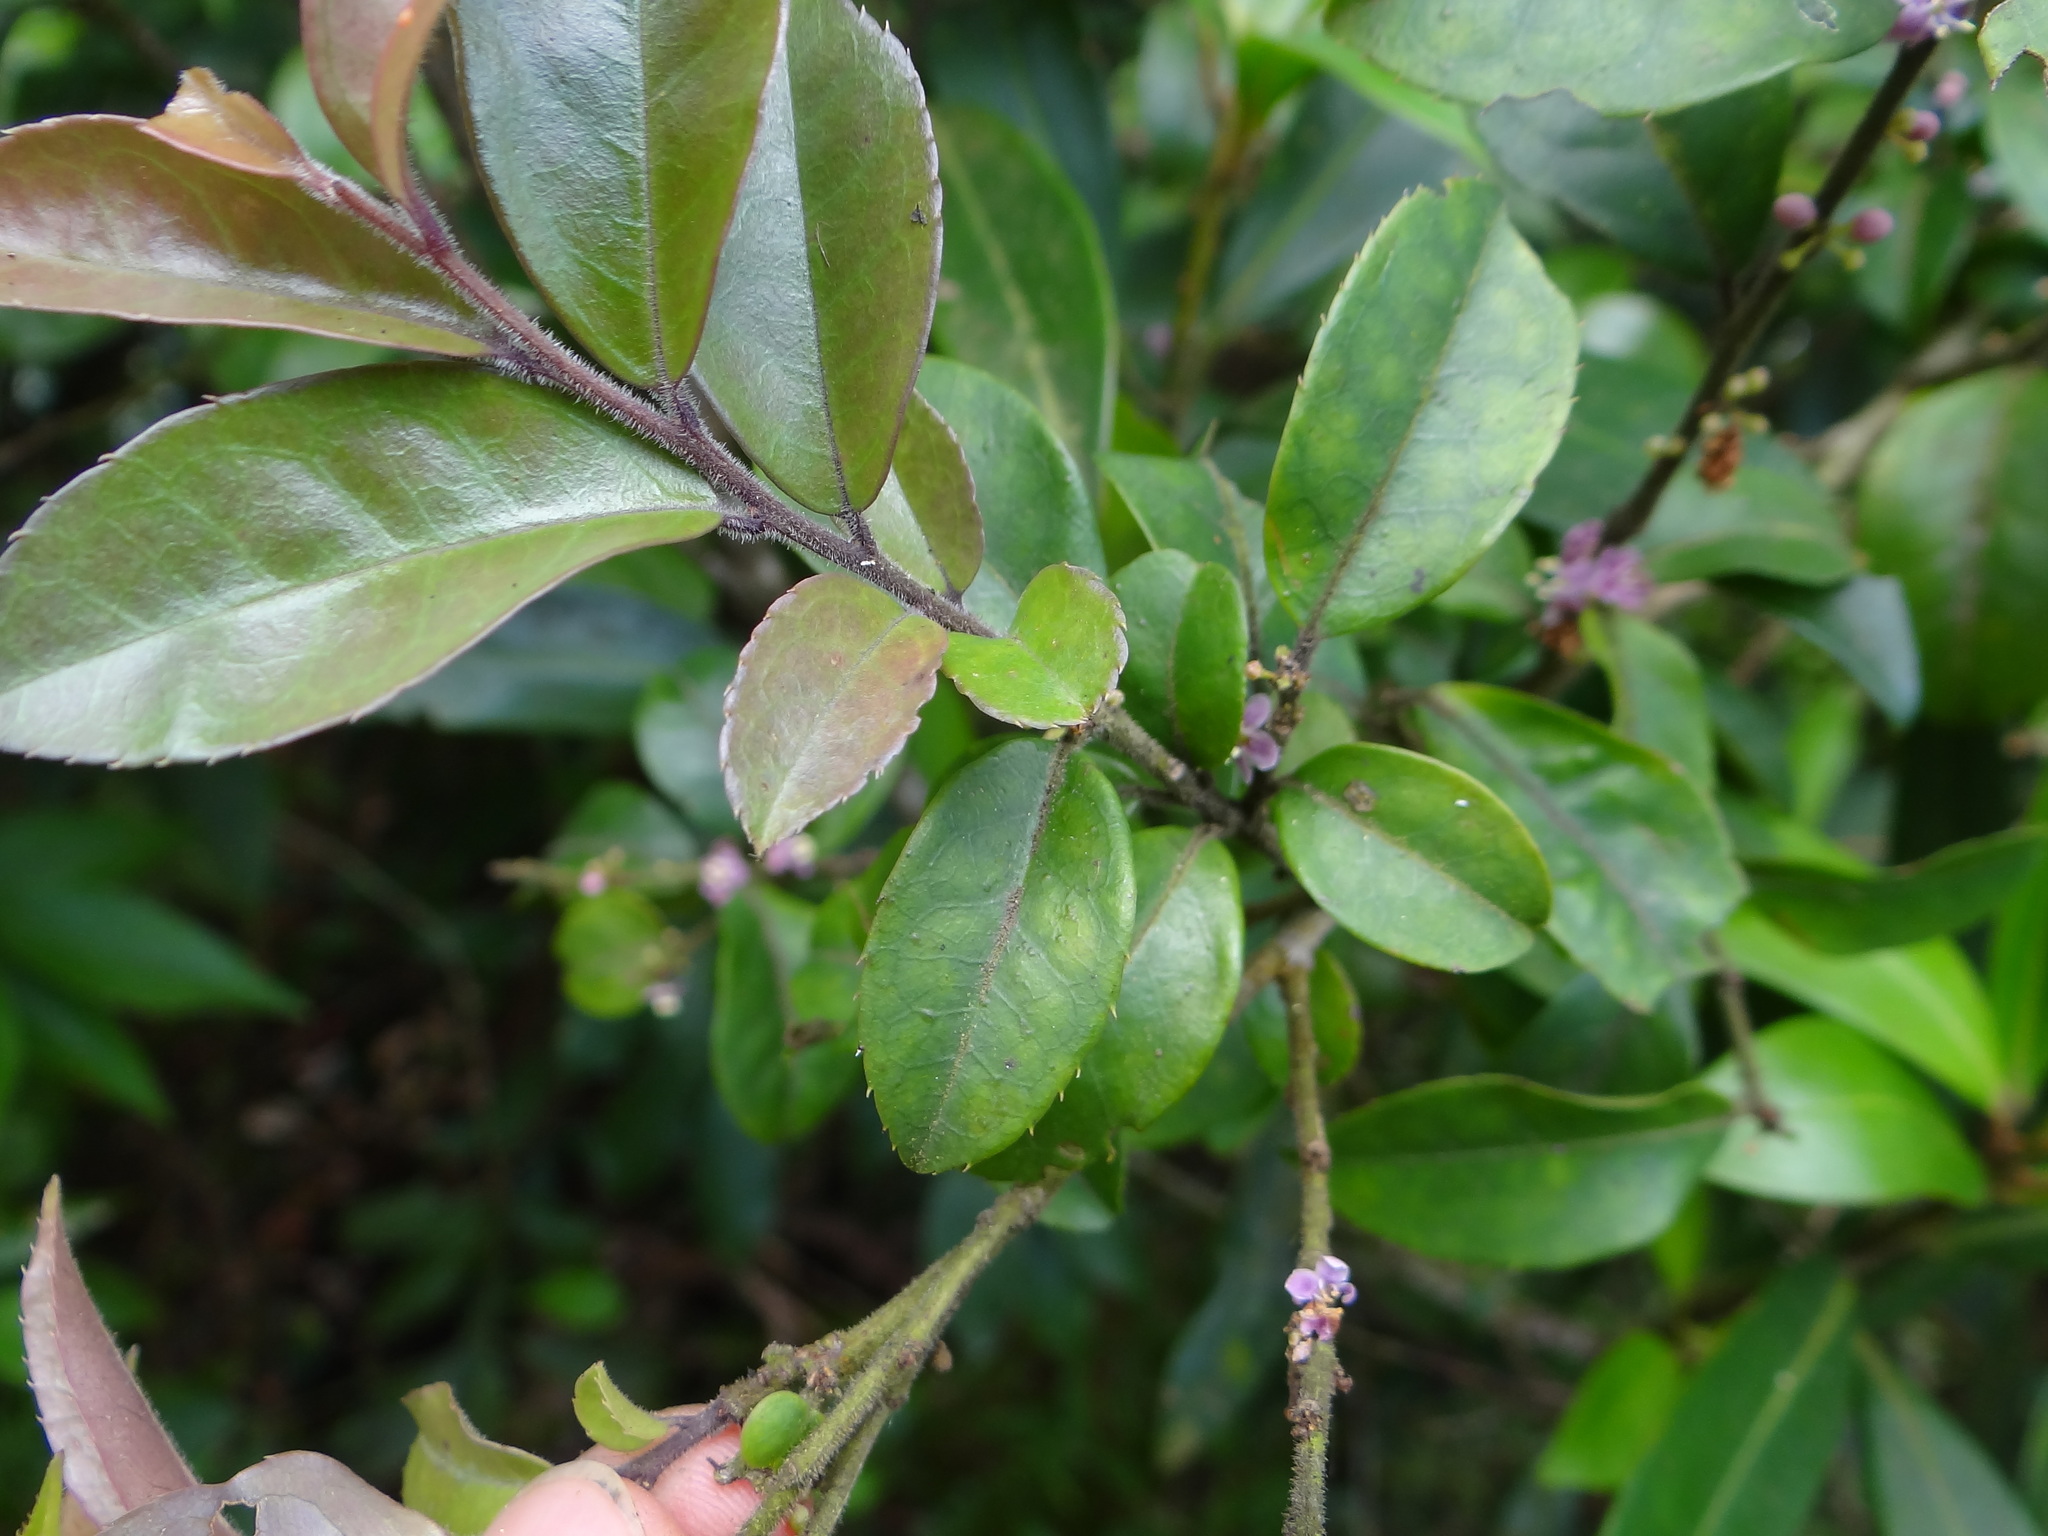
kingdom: Plantae
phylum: Tracheophyta
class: Magnoliopsida
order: Aquifoliales
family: Aquifoliaceae
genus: Ilex
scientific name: Ilex pubescens
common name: Pubescent holly
